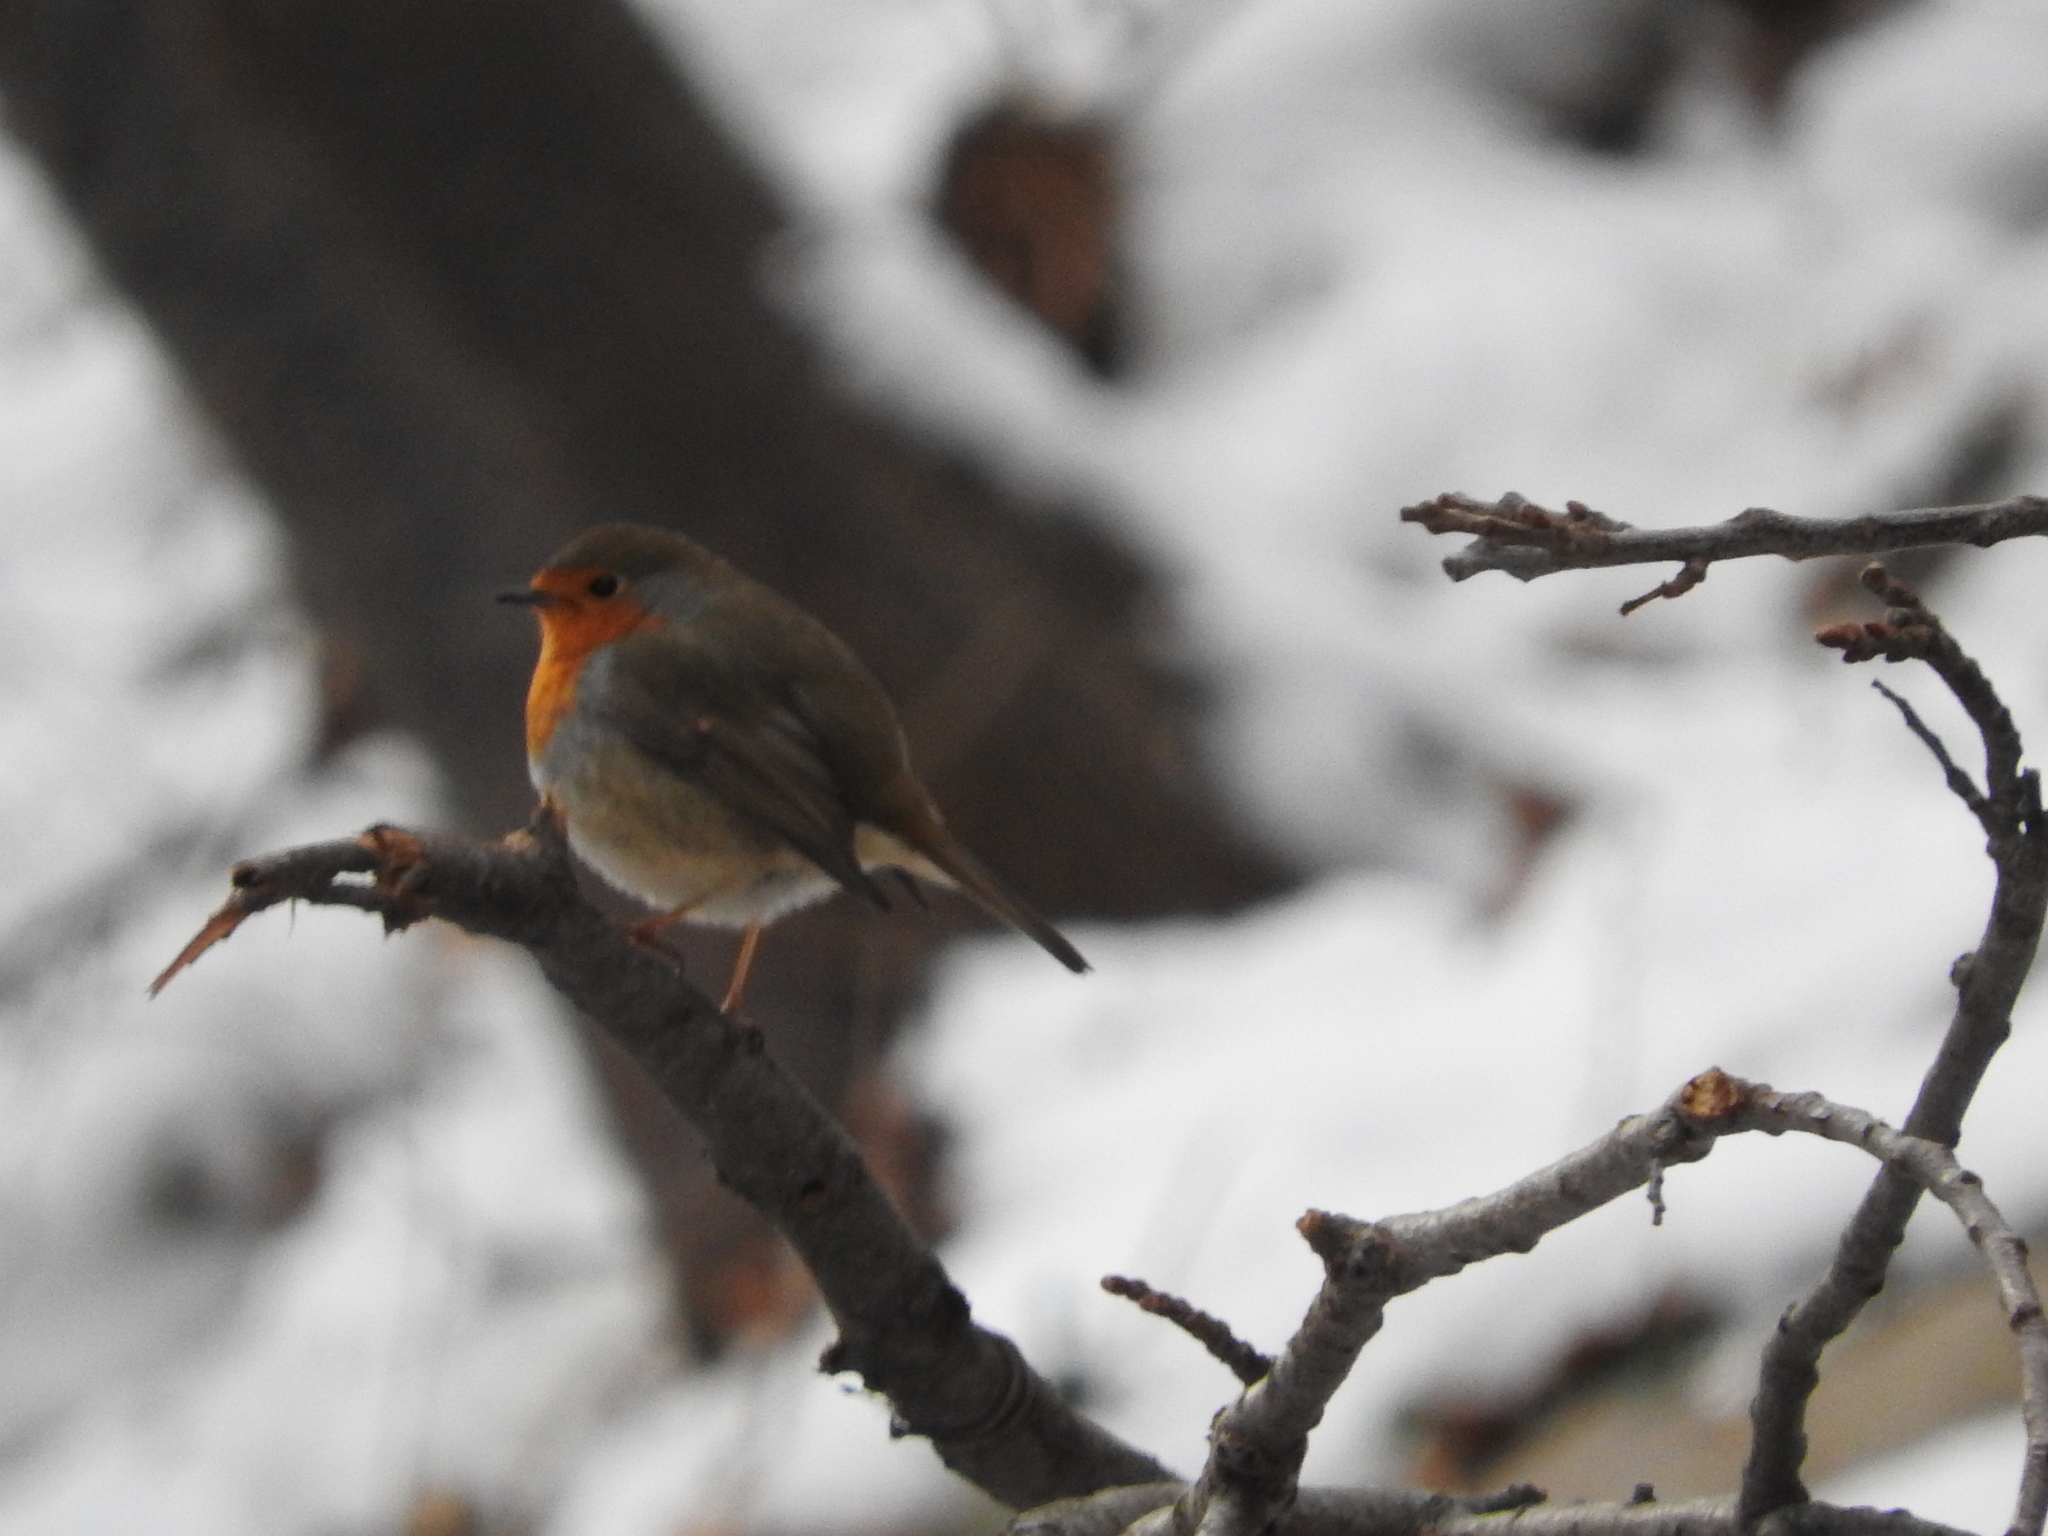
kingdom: Animalia
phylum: Chordata
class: Aves
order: Passeriformes
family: Muscicapidae
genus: Erithacus
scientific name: Erithacus rubecula
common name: European robin
